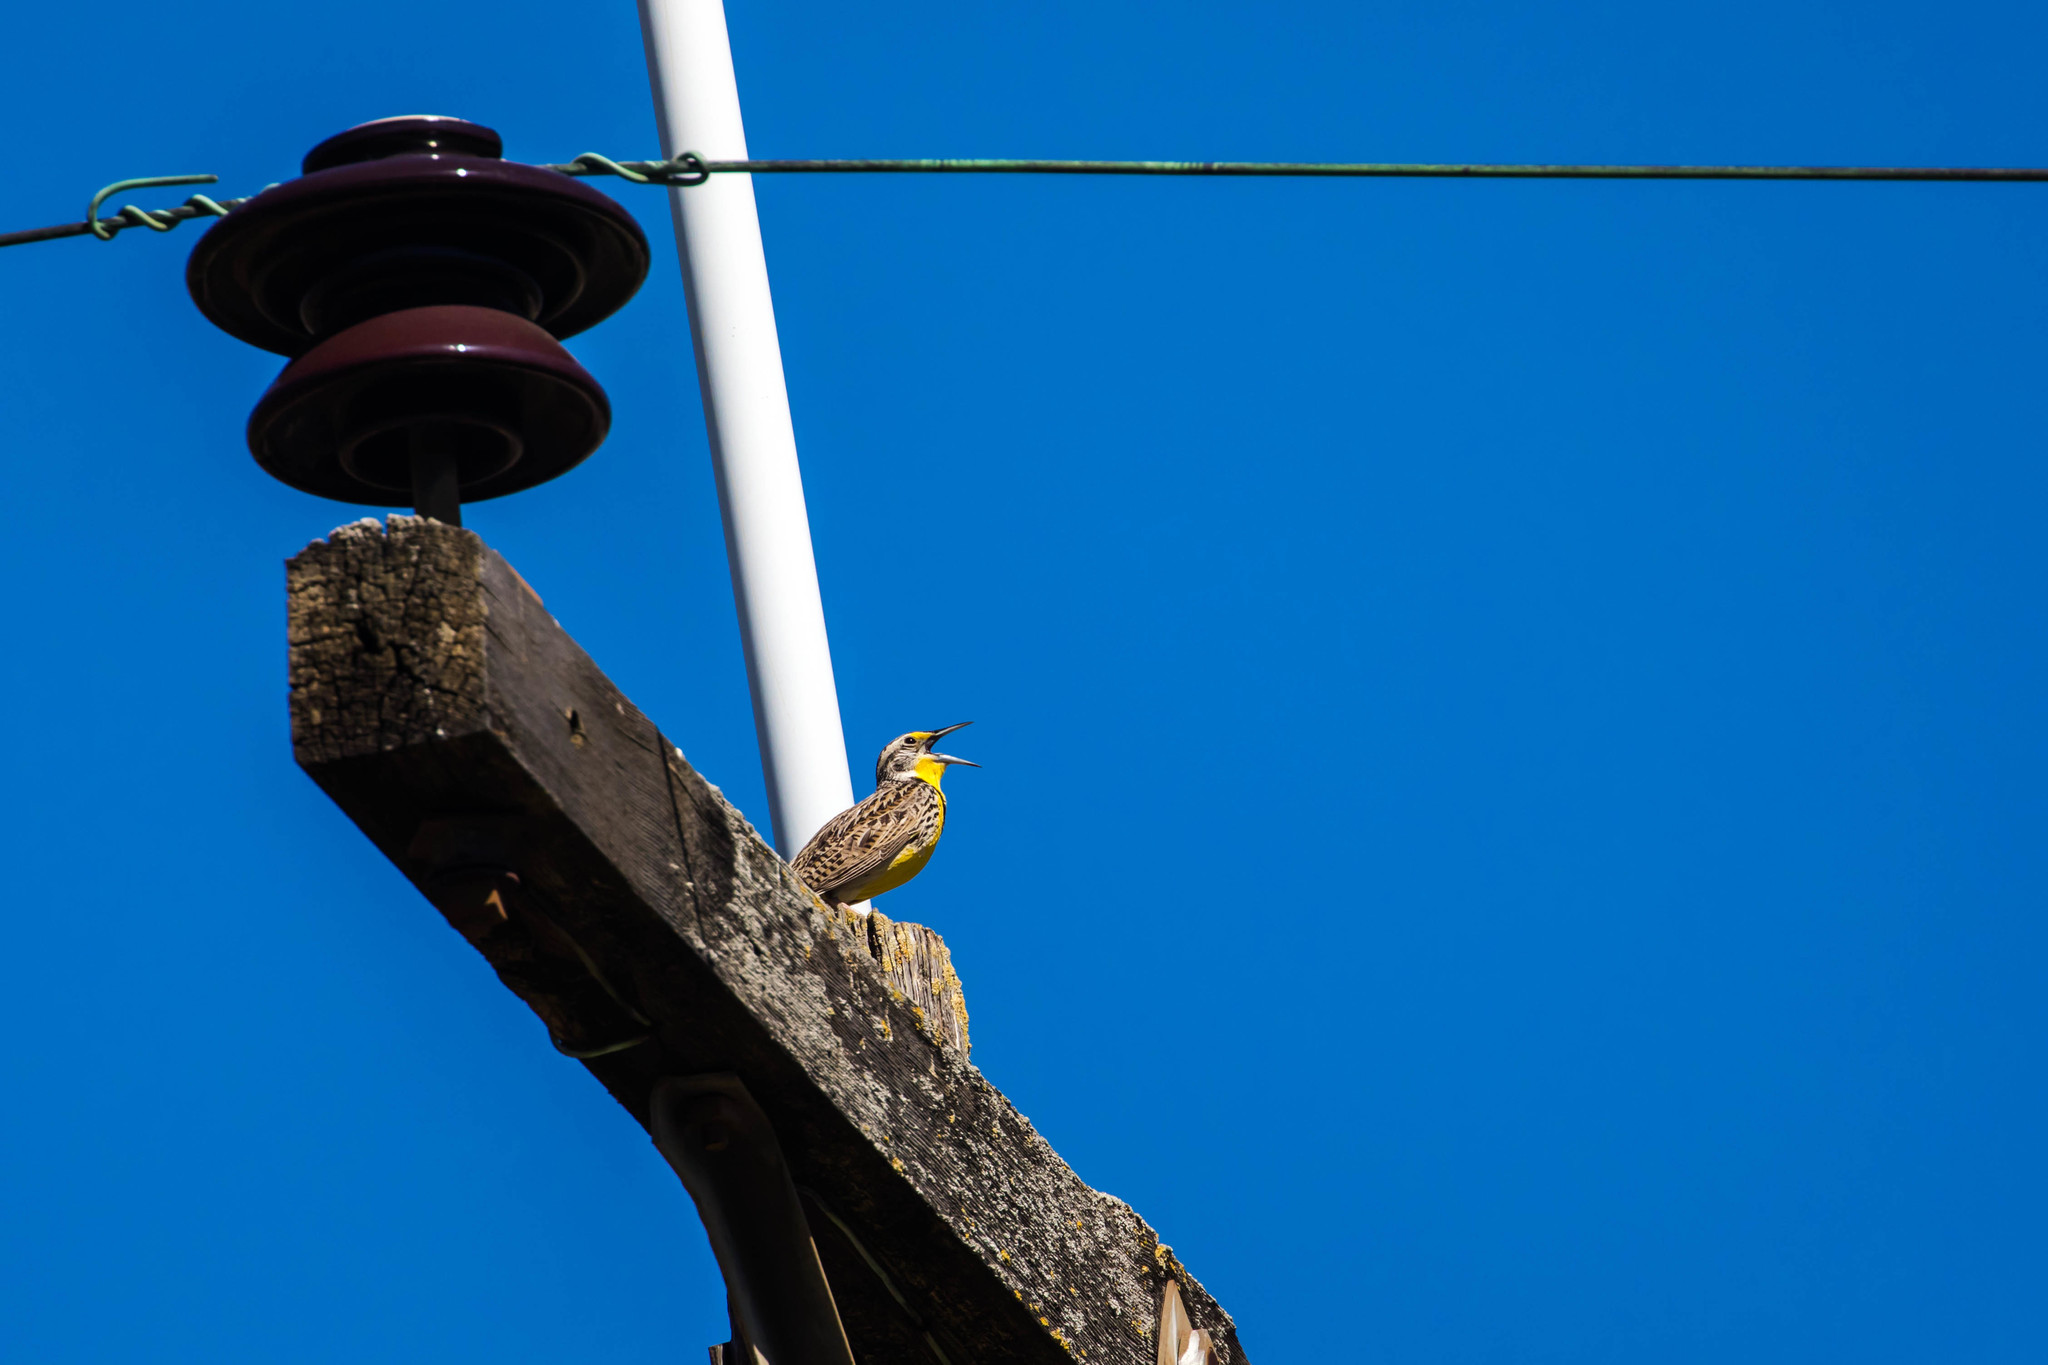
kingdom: Animalia
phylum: Chordata
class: Aves
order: Passeriformes
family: Icteridae
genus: Sturnella
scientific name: Sturnella neglecta
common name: Western meadowlark
